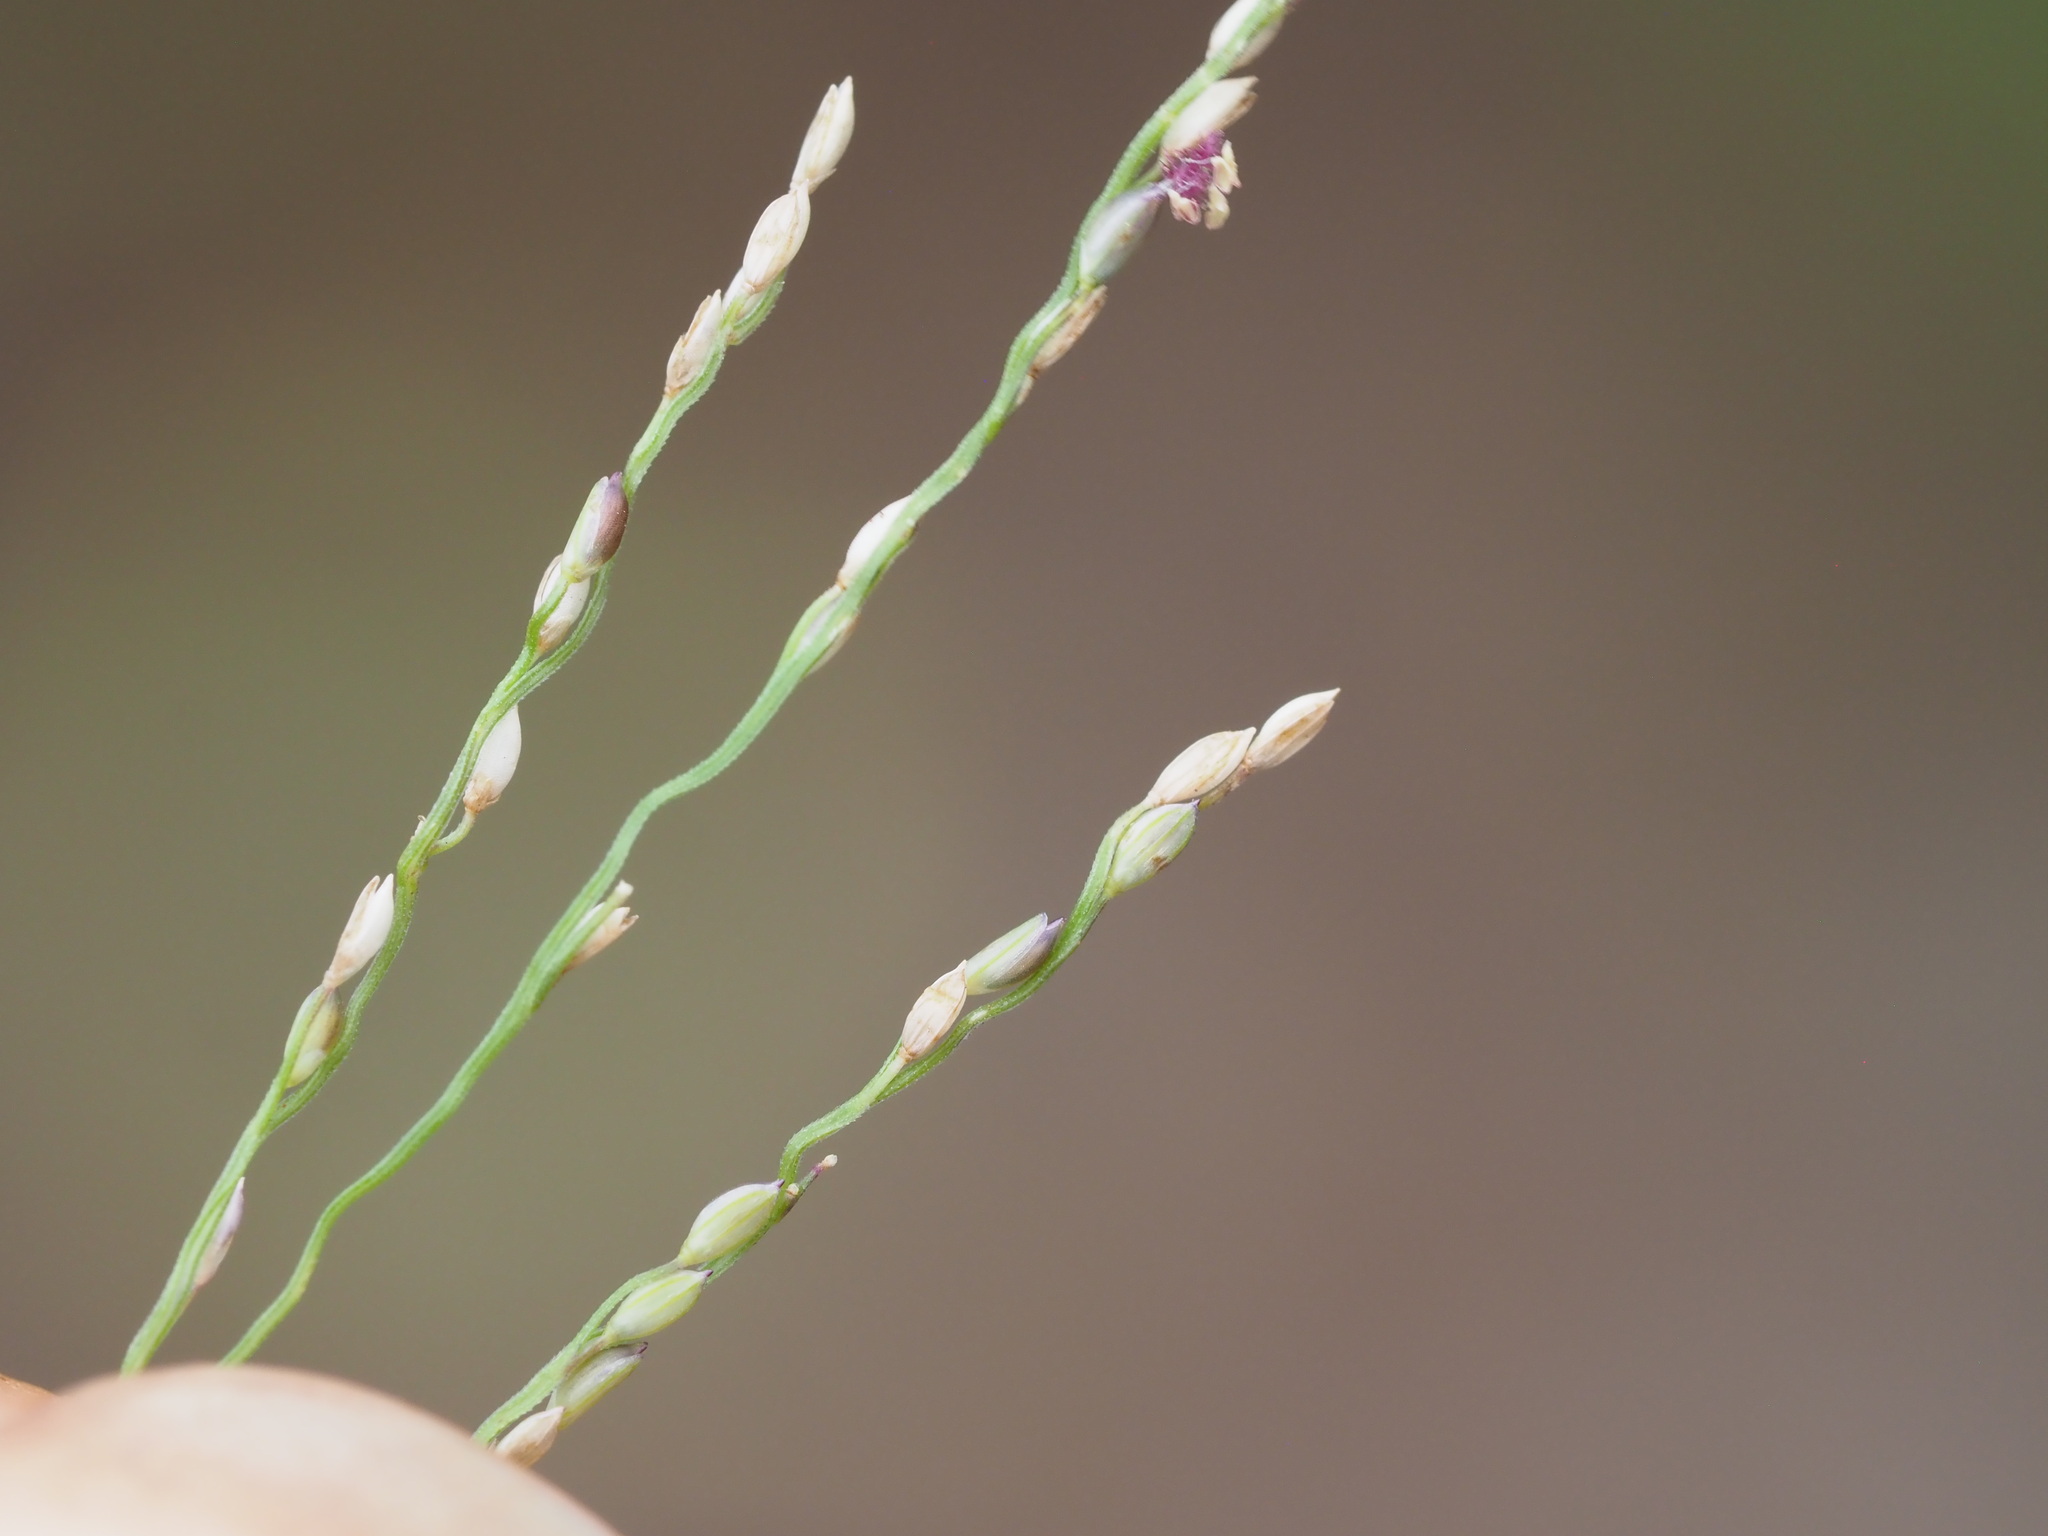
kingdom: Plantae
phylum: Tracheophyta
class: Liliopsida
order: Poales
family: Poaceae
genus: Digitaria
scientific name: Digitaria orbata
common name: Crabgrass
